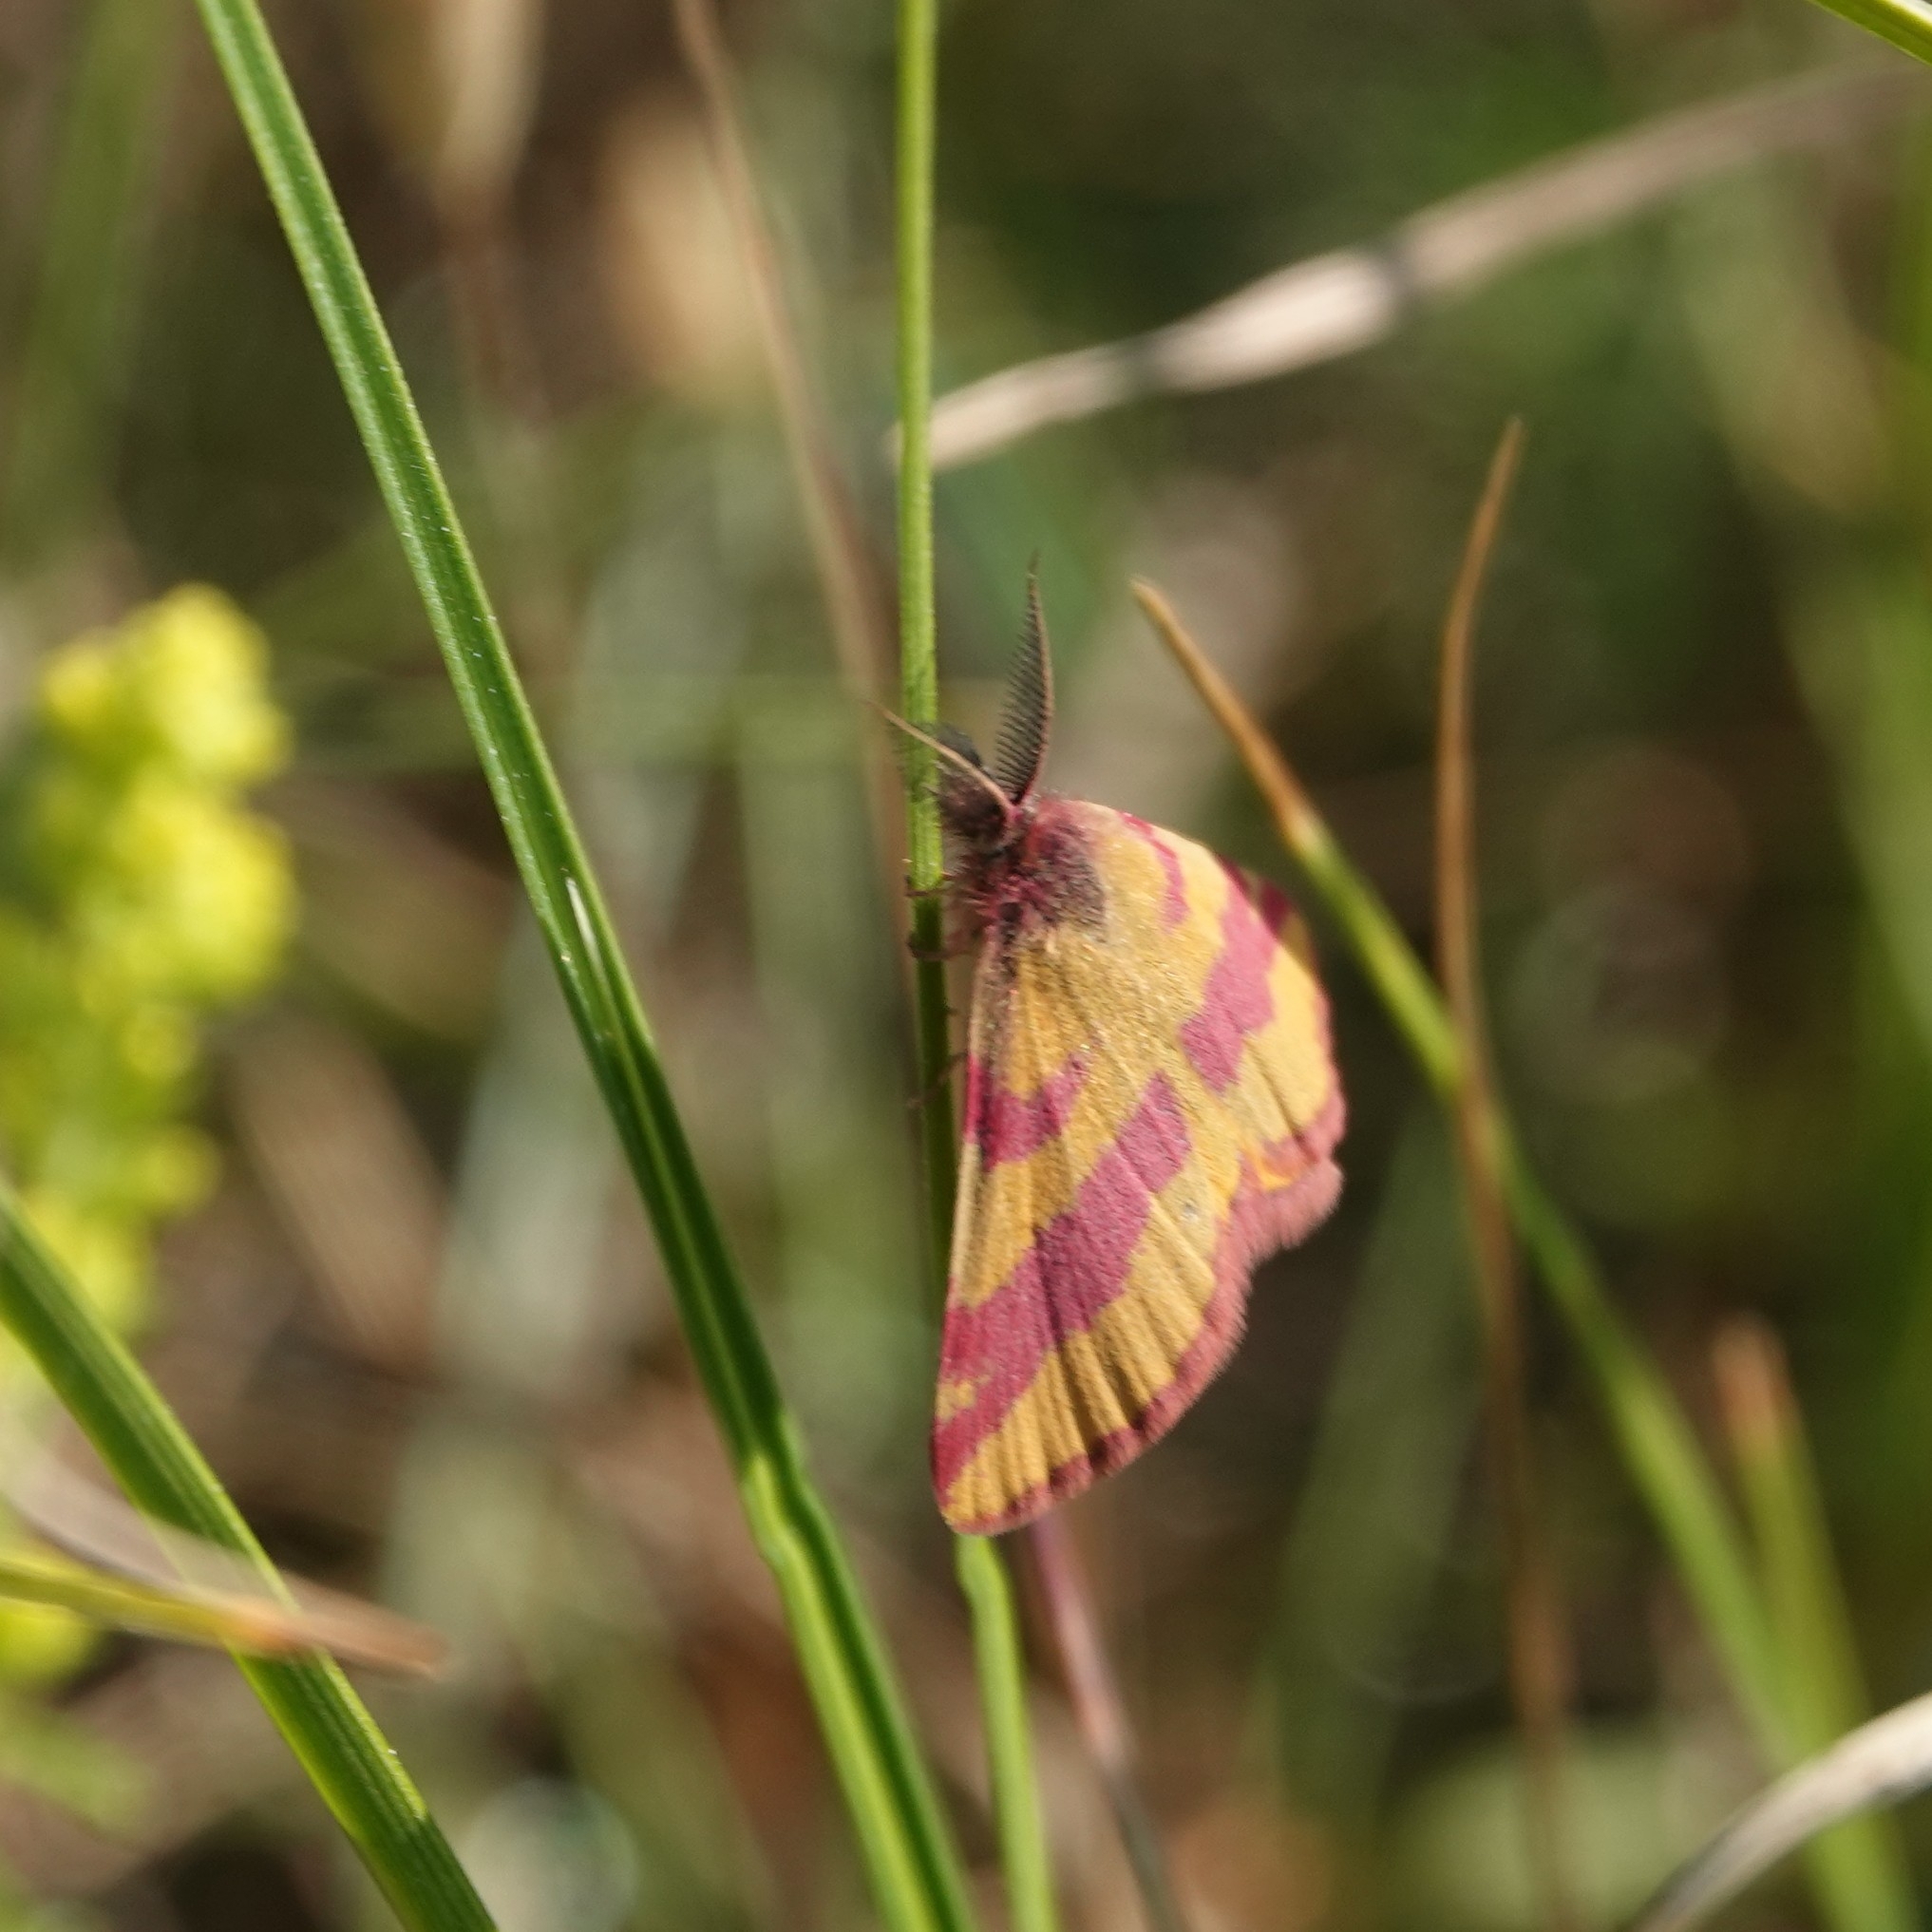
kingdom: Animalia
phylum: Arthropoda
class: Insecta
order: Lepidoptera
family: Geometridae
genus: Lythria
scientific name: Lythria cruentaria
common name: Purple-barred yellow
